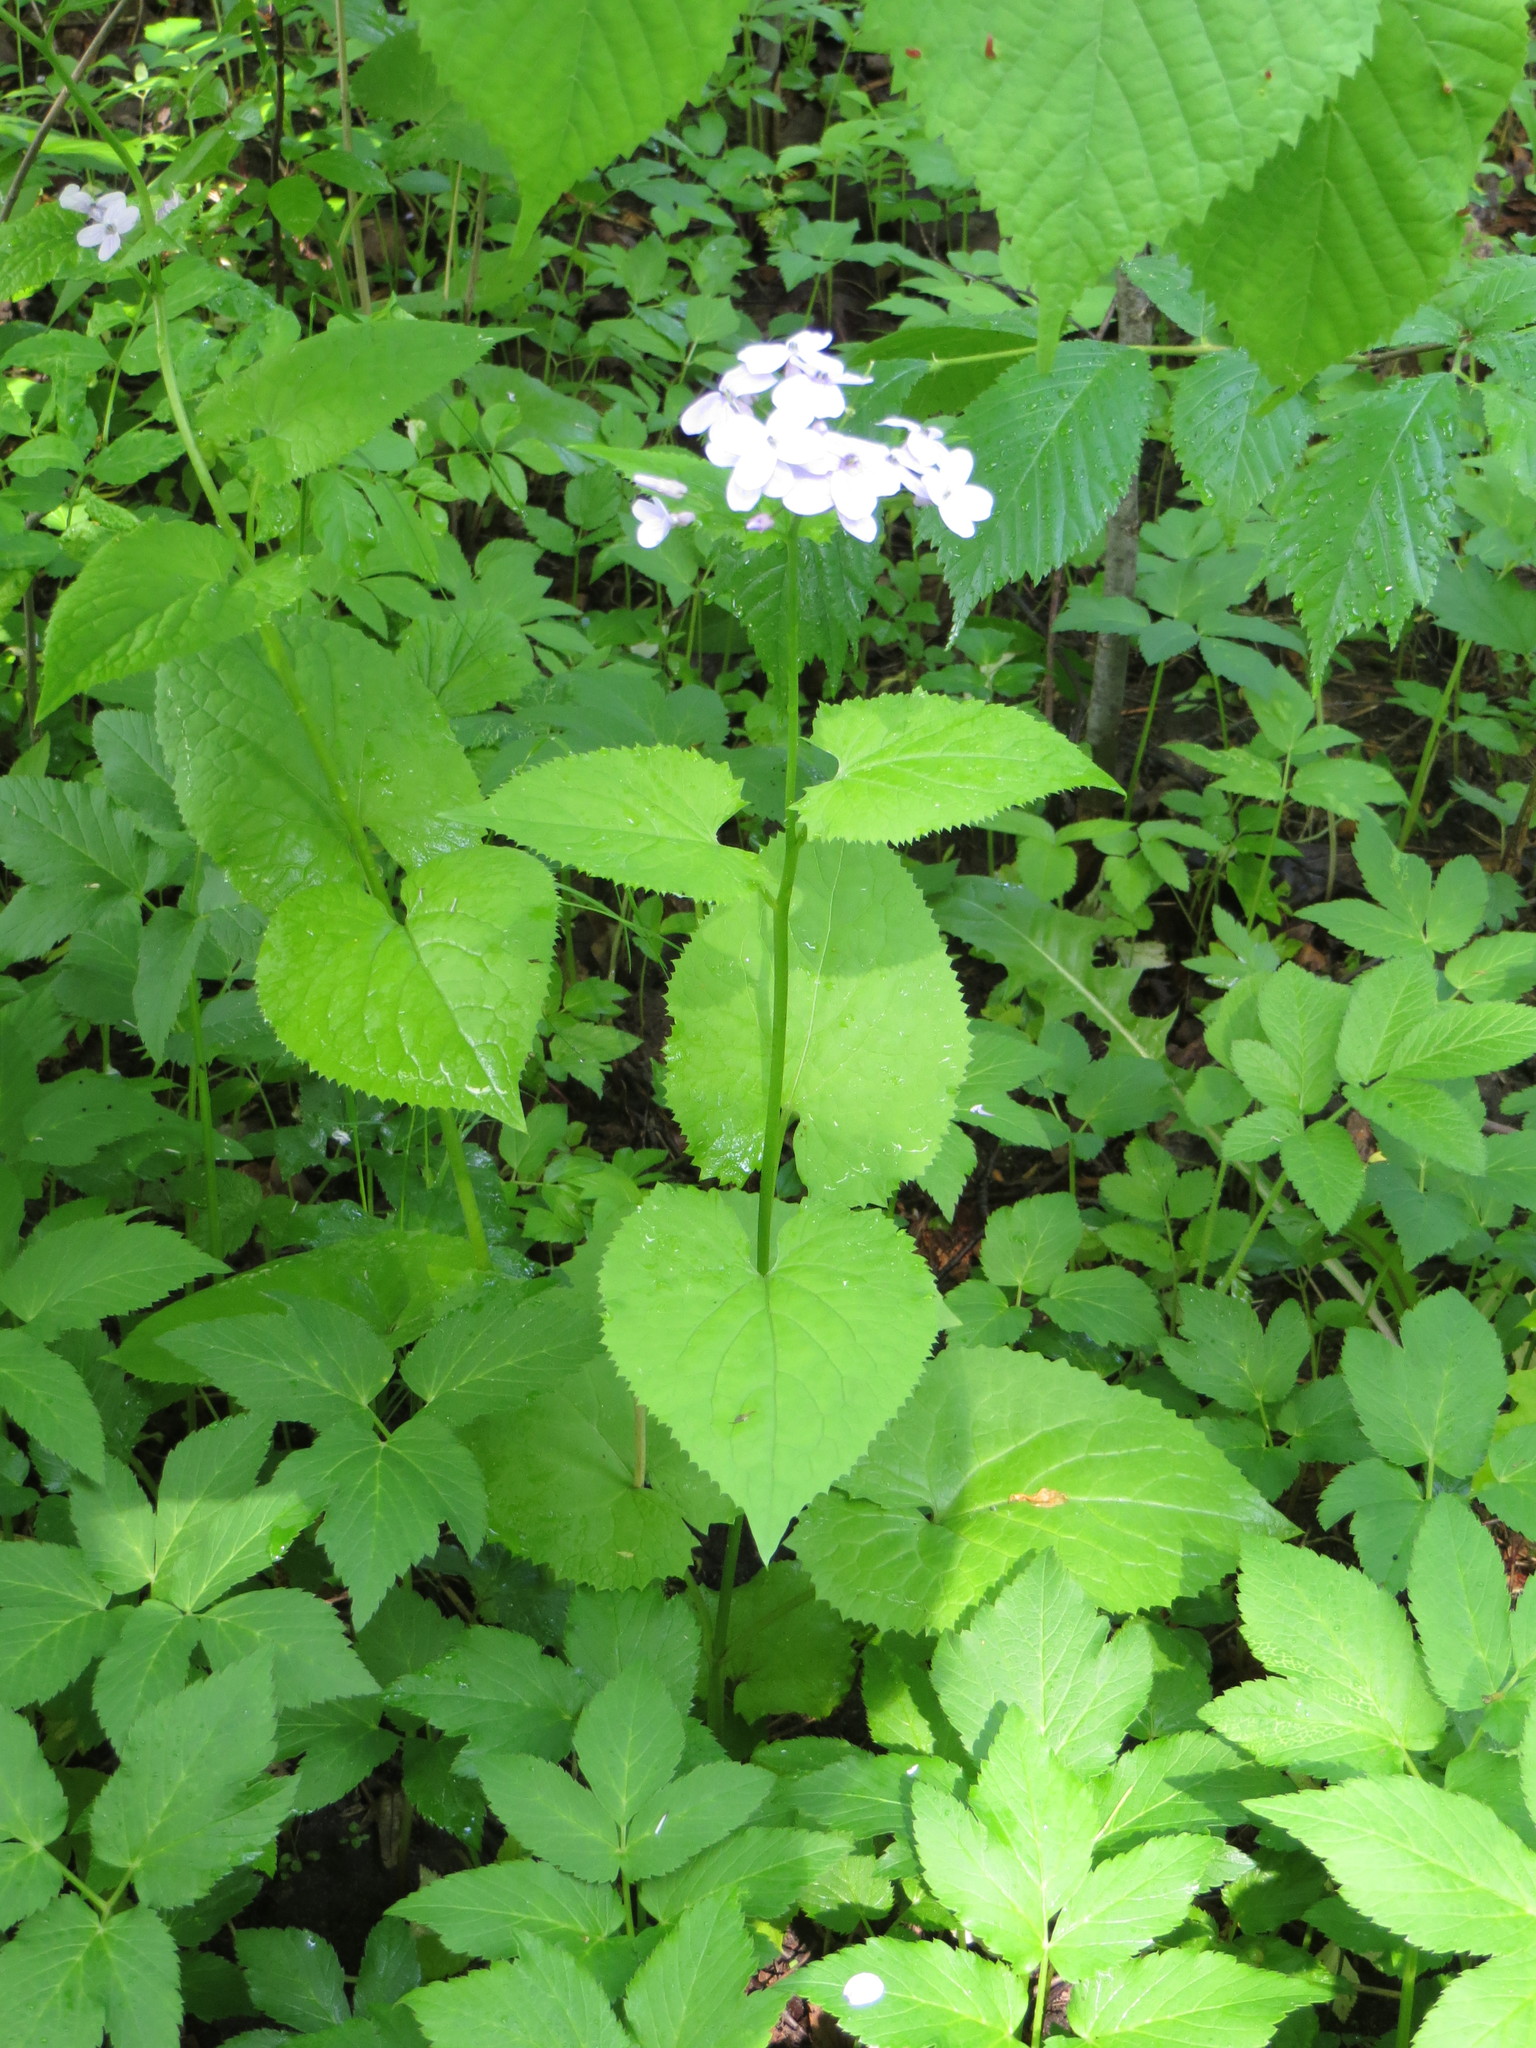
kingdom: Plantae
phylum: Tracheophyta
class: Magnoliopsida
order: Brassicales
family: Brassicaceae
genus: Lunaria
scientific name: Lunaria rediviva
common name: Perennial honesty
